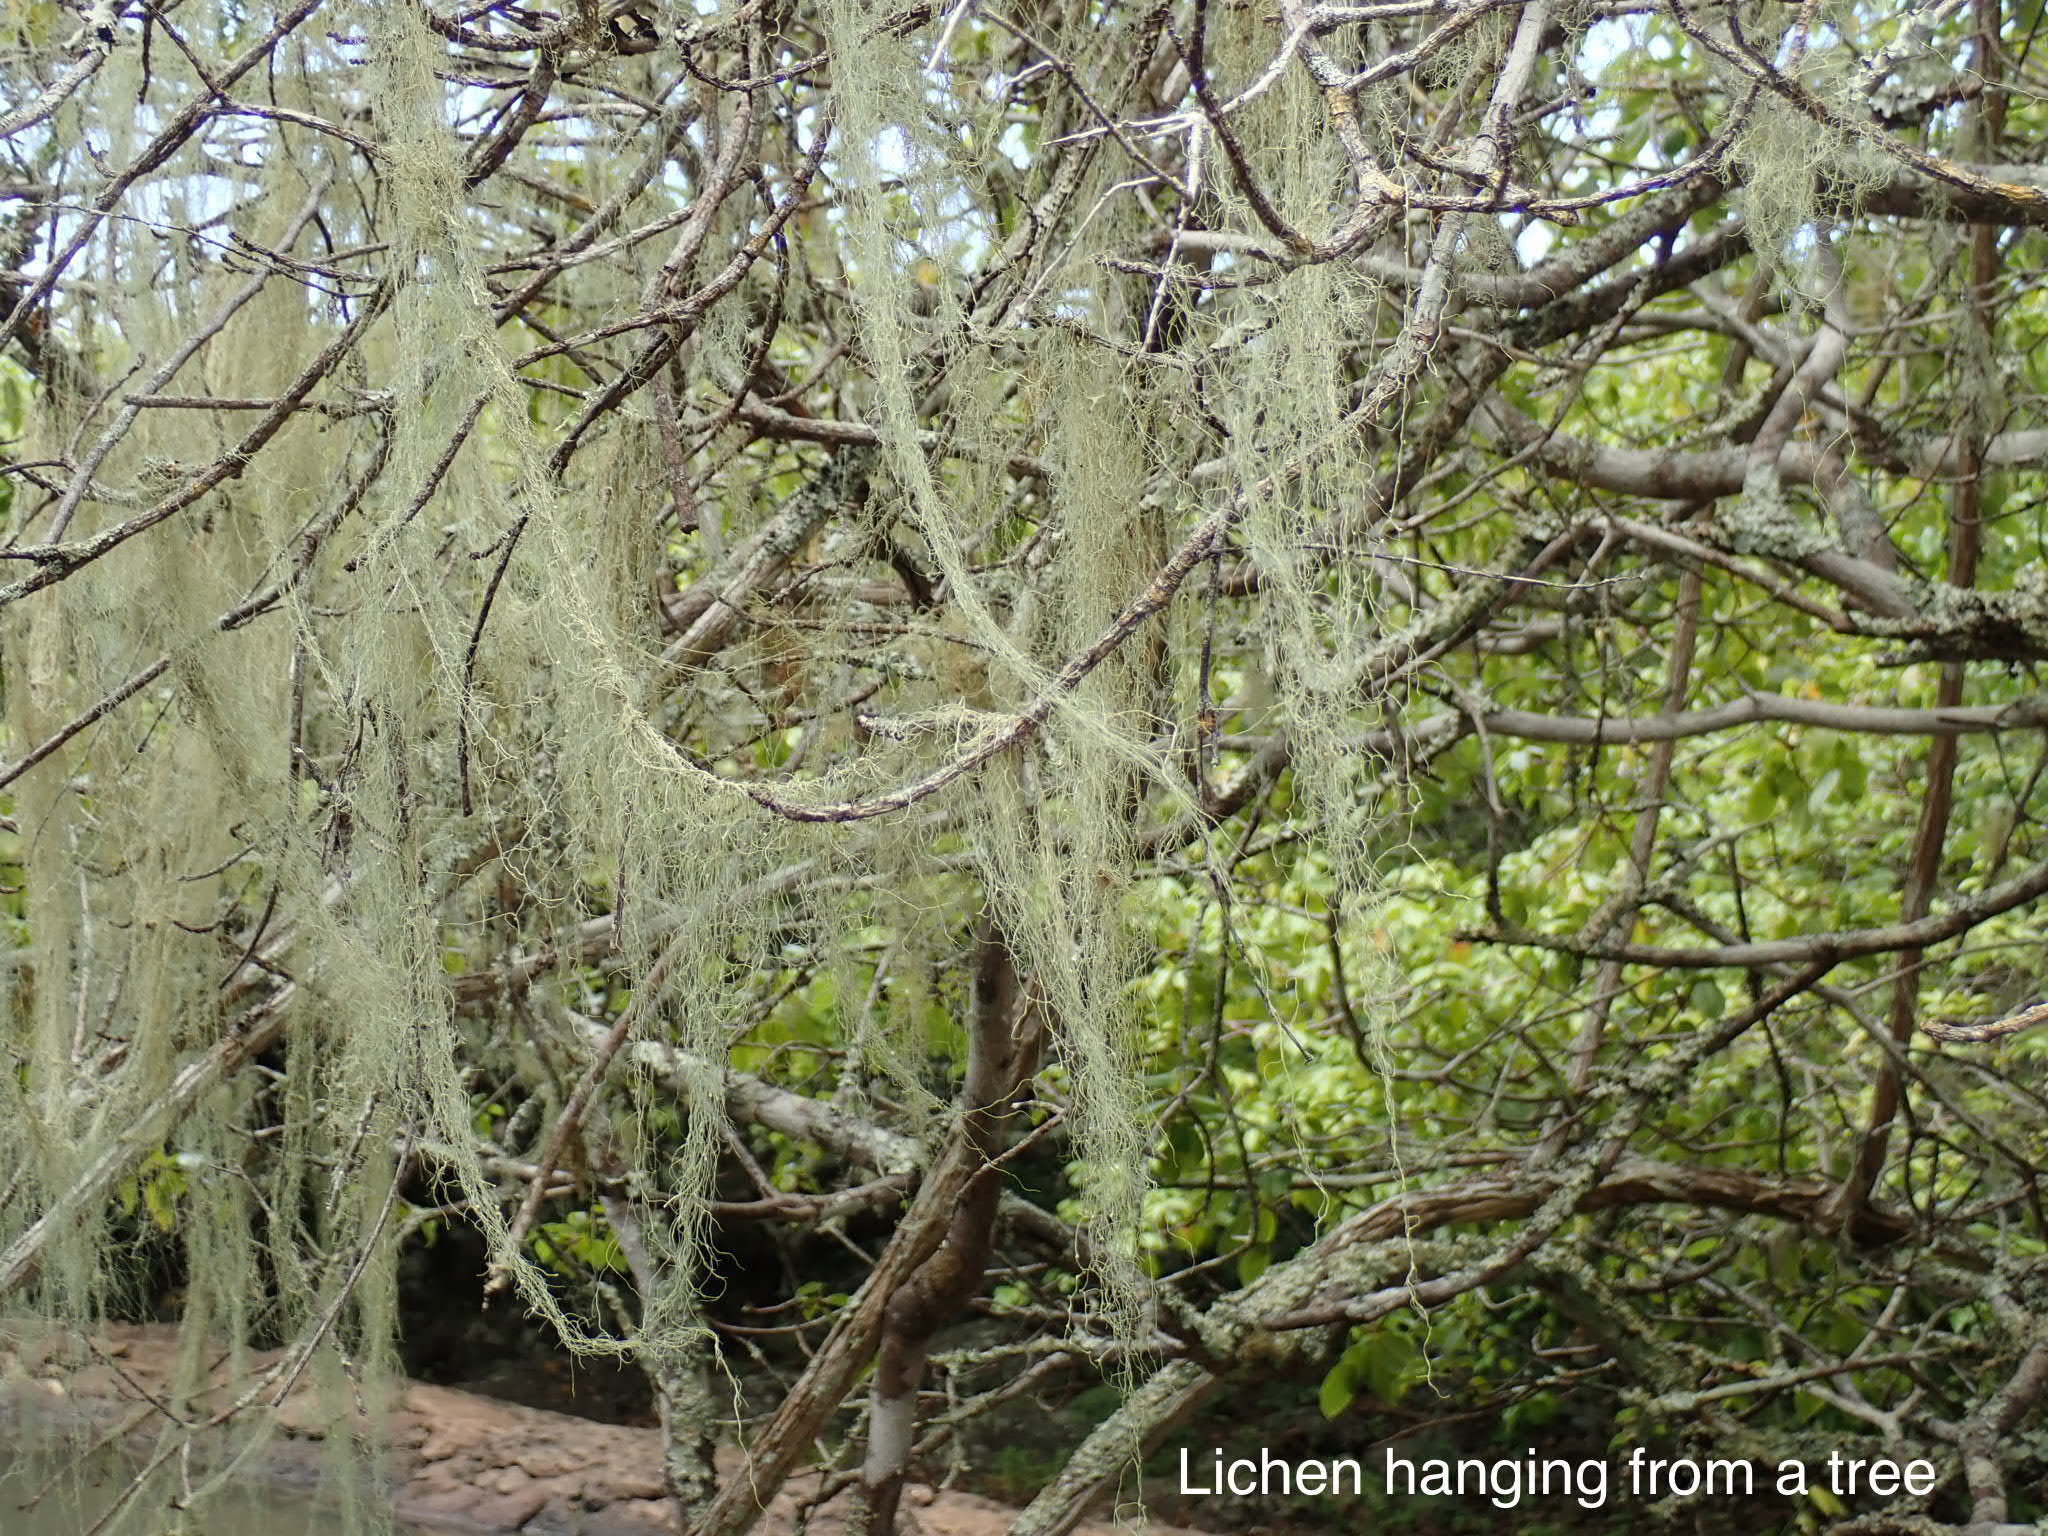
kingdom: Fungi
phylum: Ascomycota
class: Lecanoromycetes
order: Lecanorales
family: Ramalinaceae
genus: Ramalina
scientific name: Ramalina usnea
